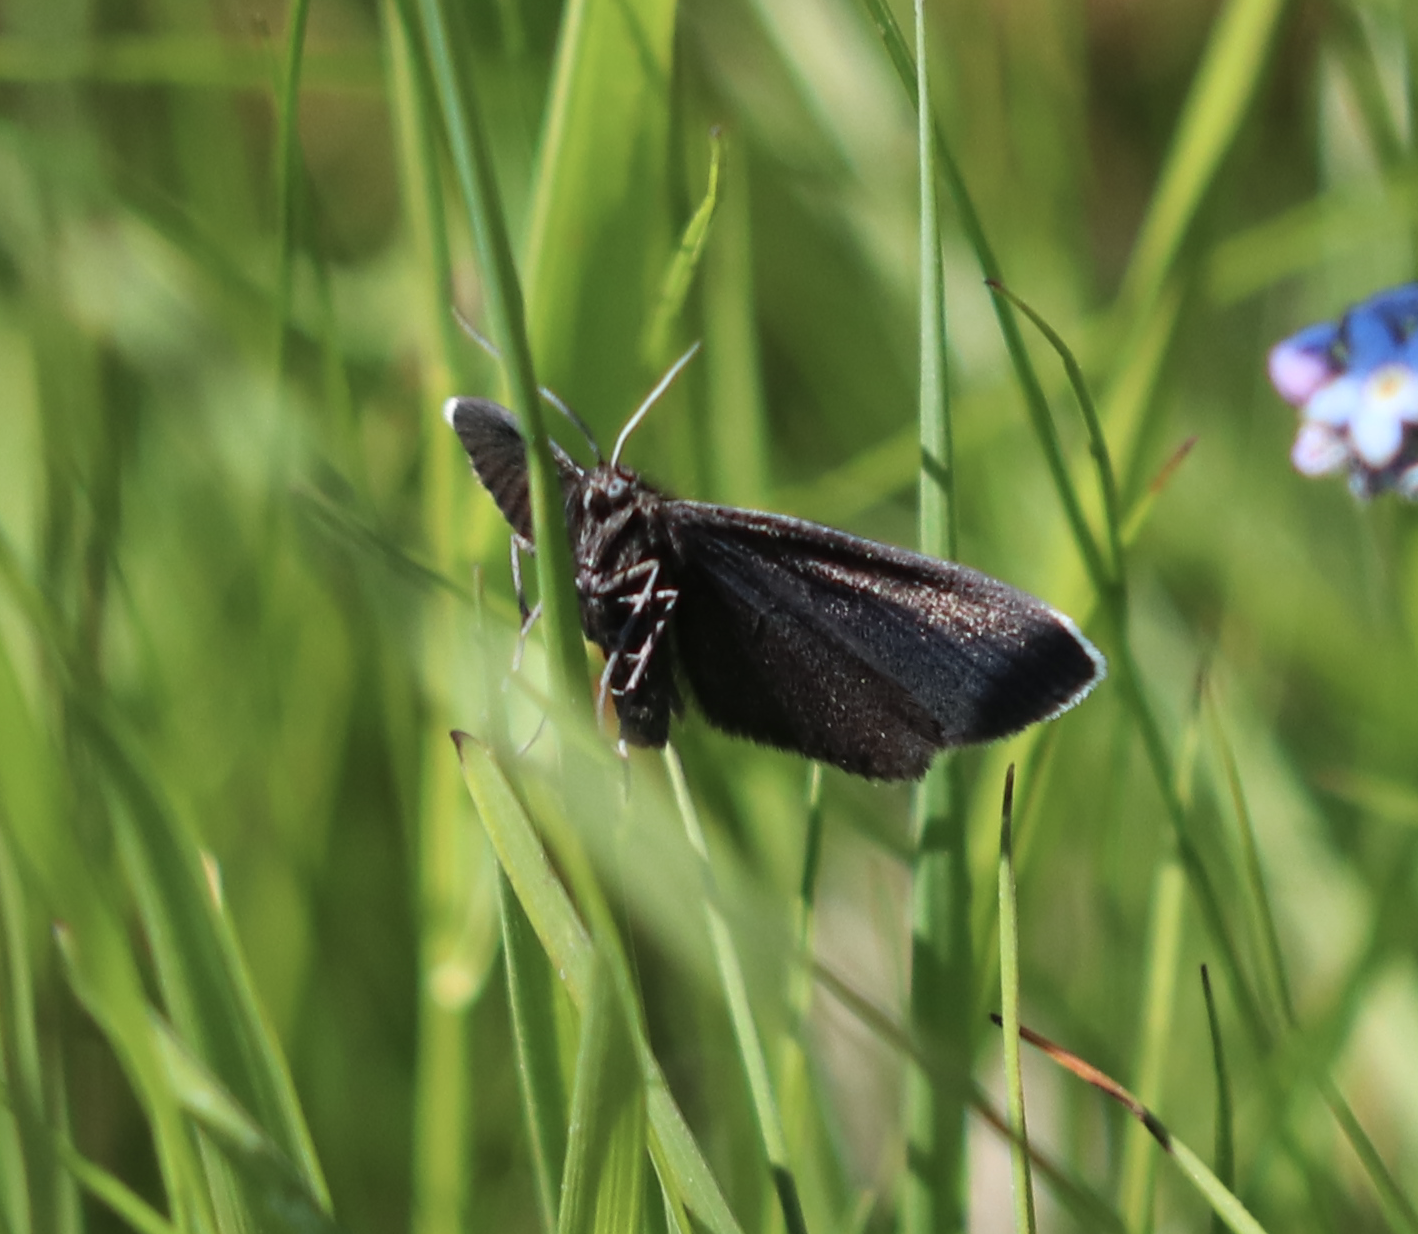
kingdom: Animalia
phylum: Arthropoda
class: Insecta
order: Lepidoptera
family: Geometridae
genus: Odezia
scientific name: Odezia atrata
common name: Chimney sweeper
